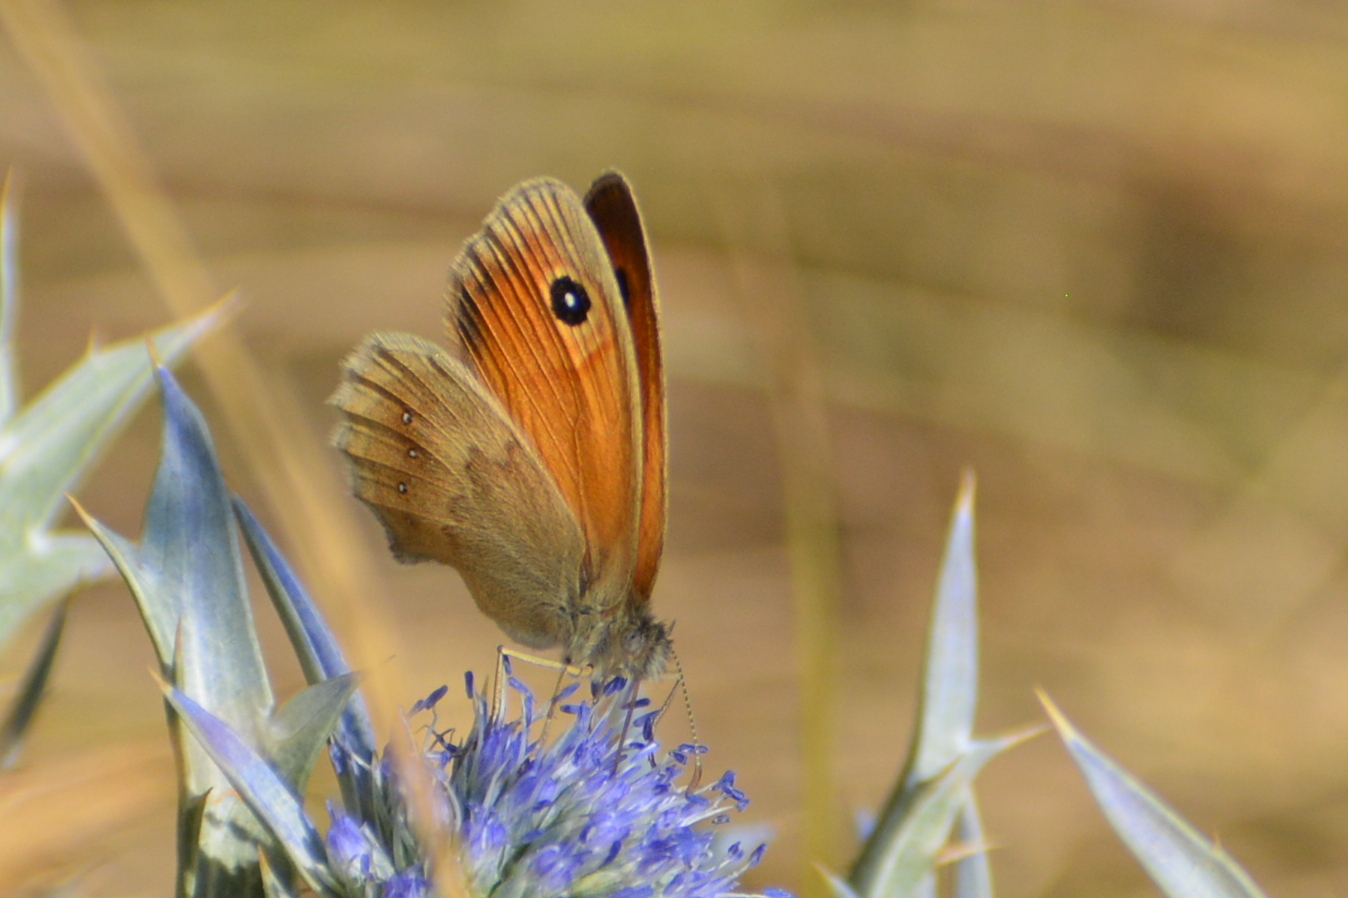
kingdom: Animalia
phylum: Arthropoda
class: Insecta
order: Lepidoptera
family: Nymphalidae
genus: Coenonympha
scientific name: Coenonympha pamphilus
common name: Small heath
